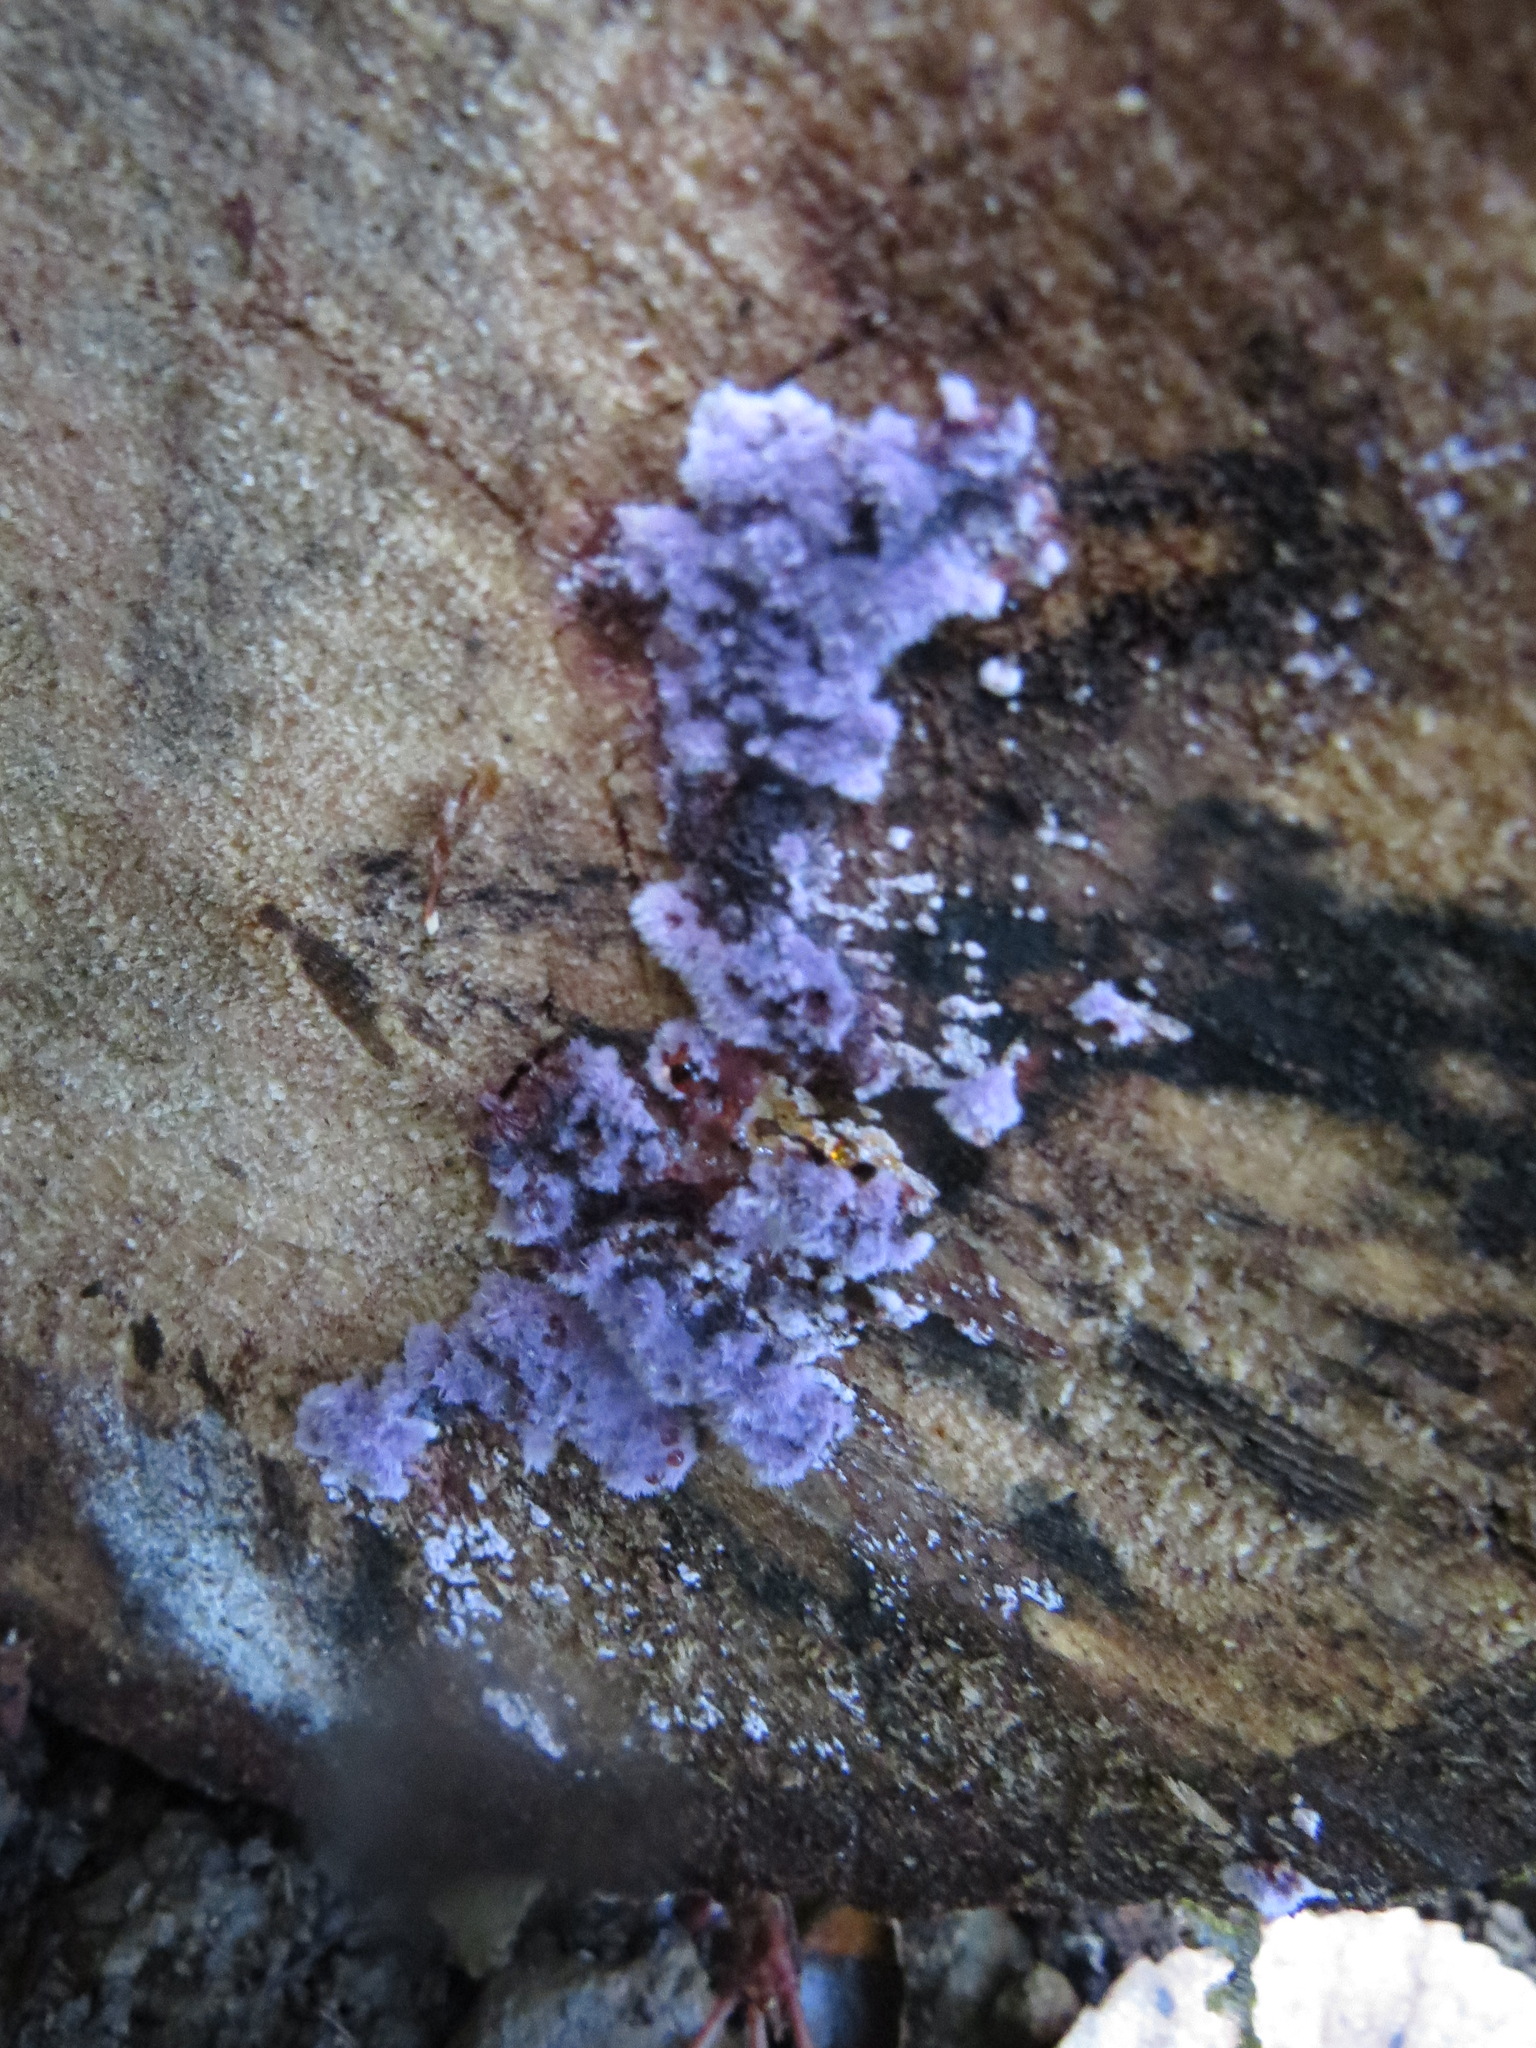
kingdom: Fungi
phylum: Basidiomycota
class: Agaricomycetes
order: Corticiales
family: Punctulariaceae
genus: Punctularia
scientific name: Punctularia atropurpurascens
